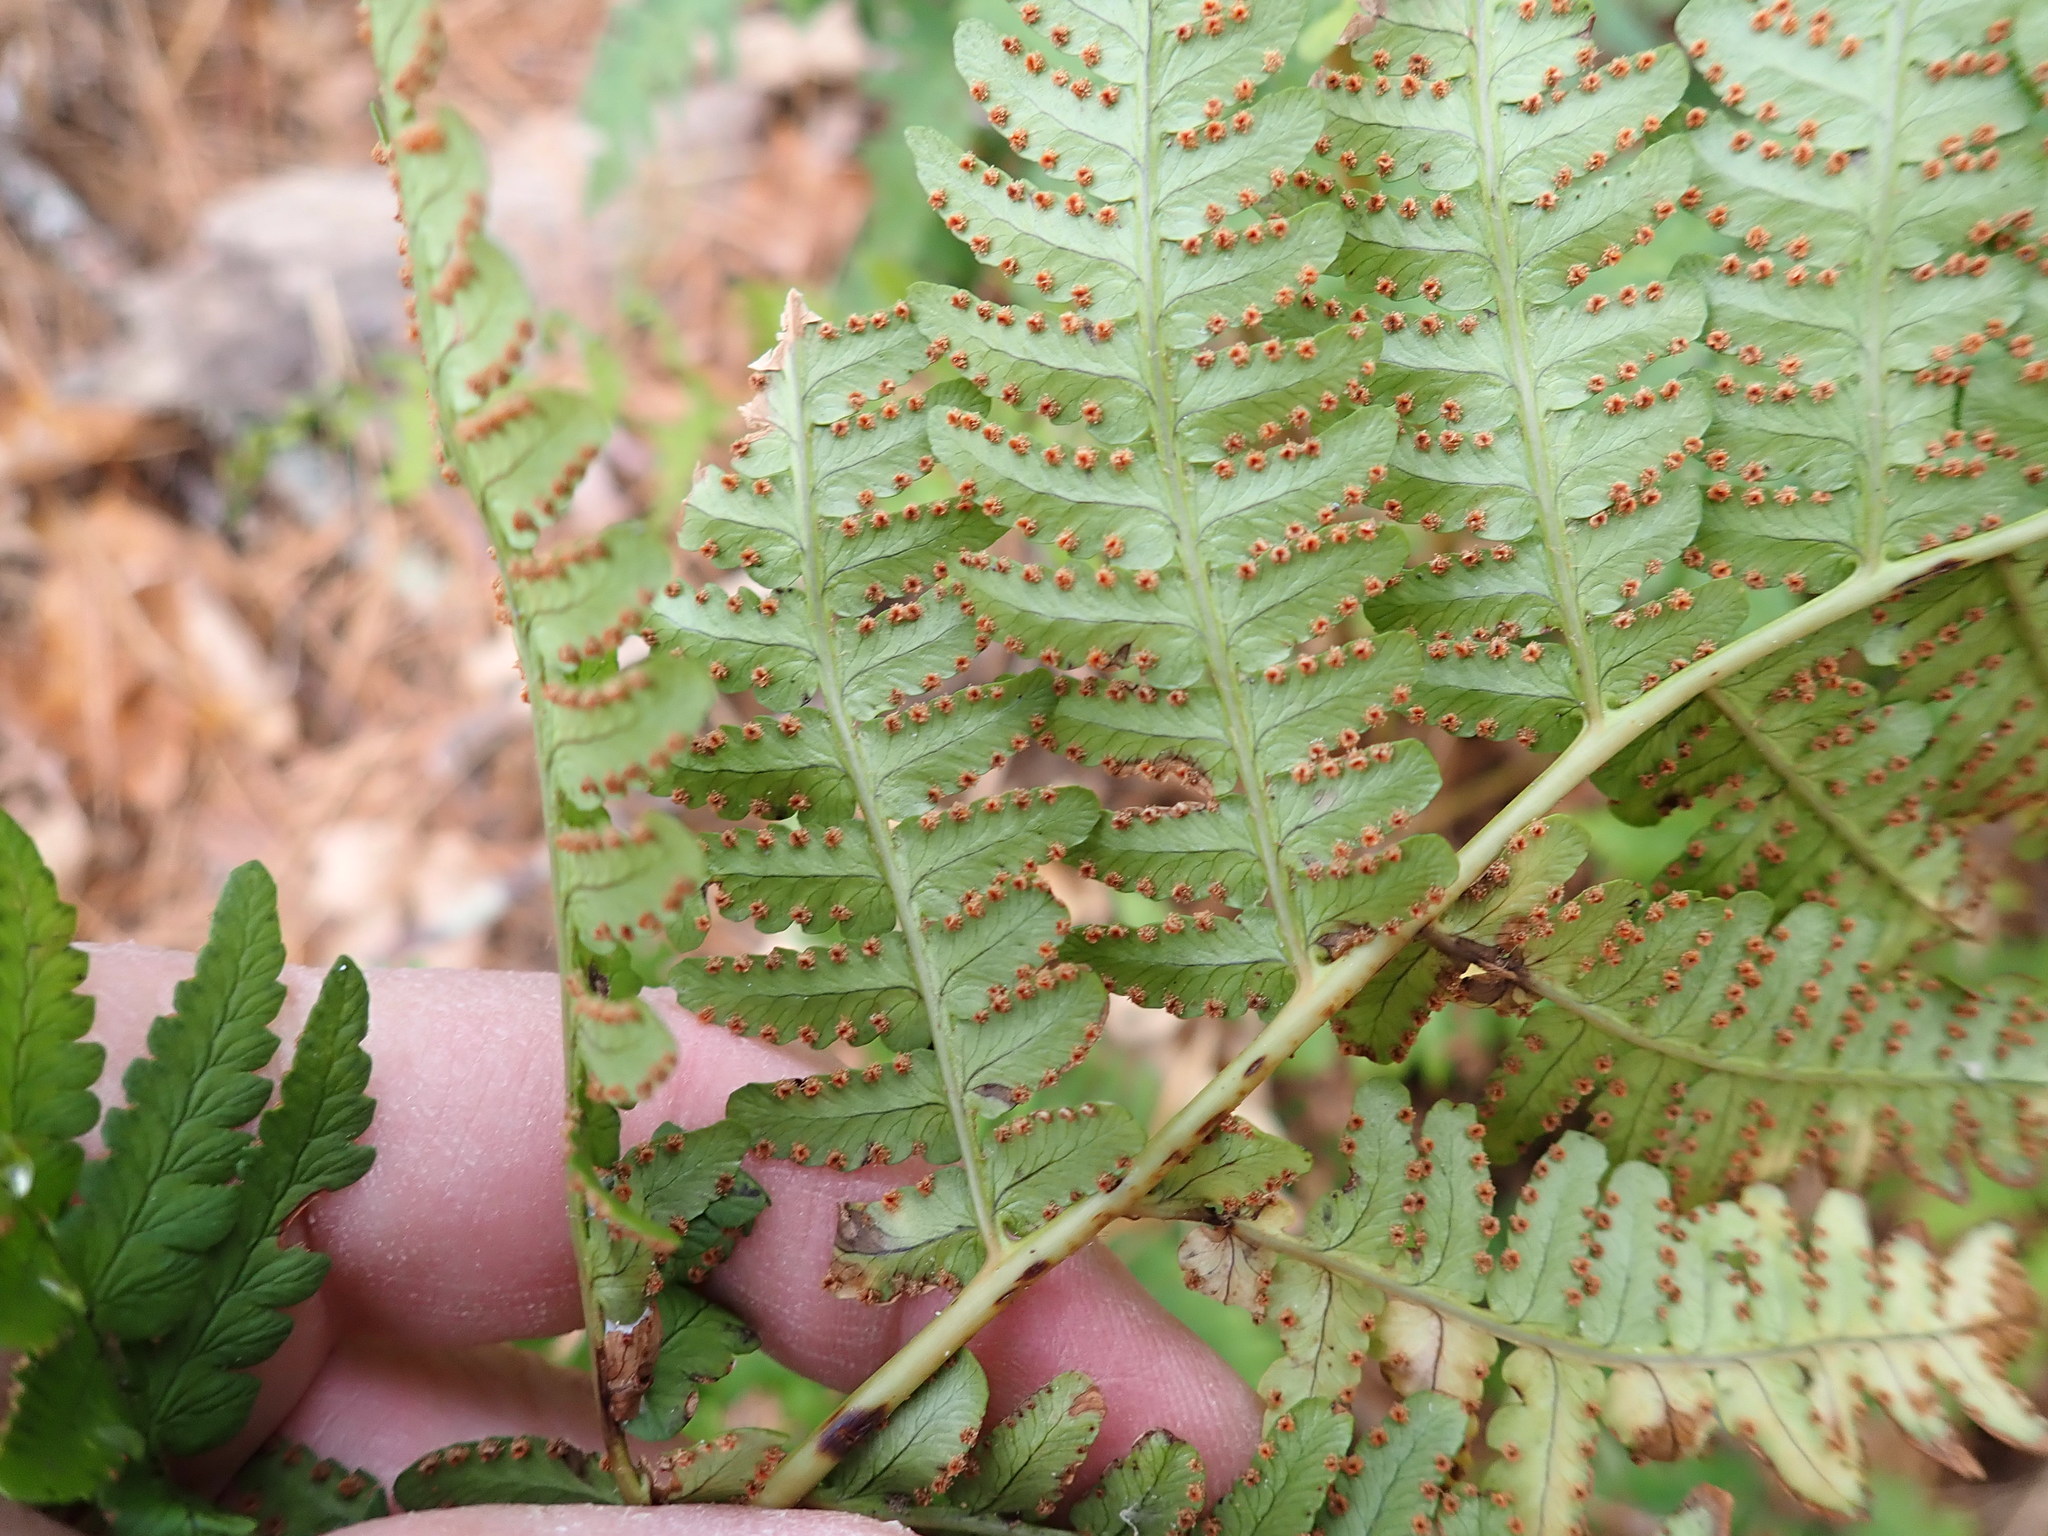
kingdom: Plantae
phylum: Tracheophyta
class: Polypodiopsida
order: Polypodiales
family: Dryopteridaceae
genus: Dryopteris
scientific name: Dryopteris marginalis
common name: Marginal wood fern
